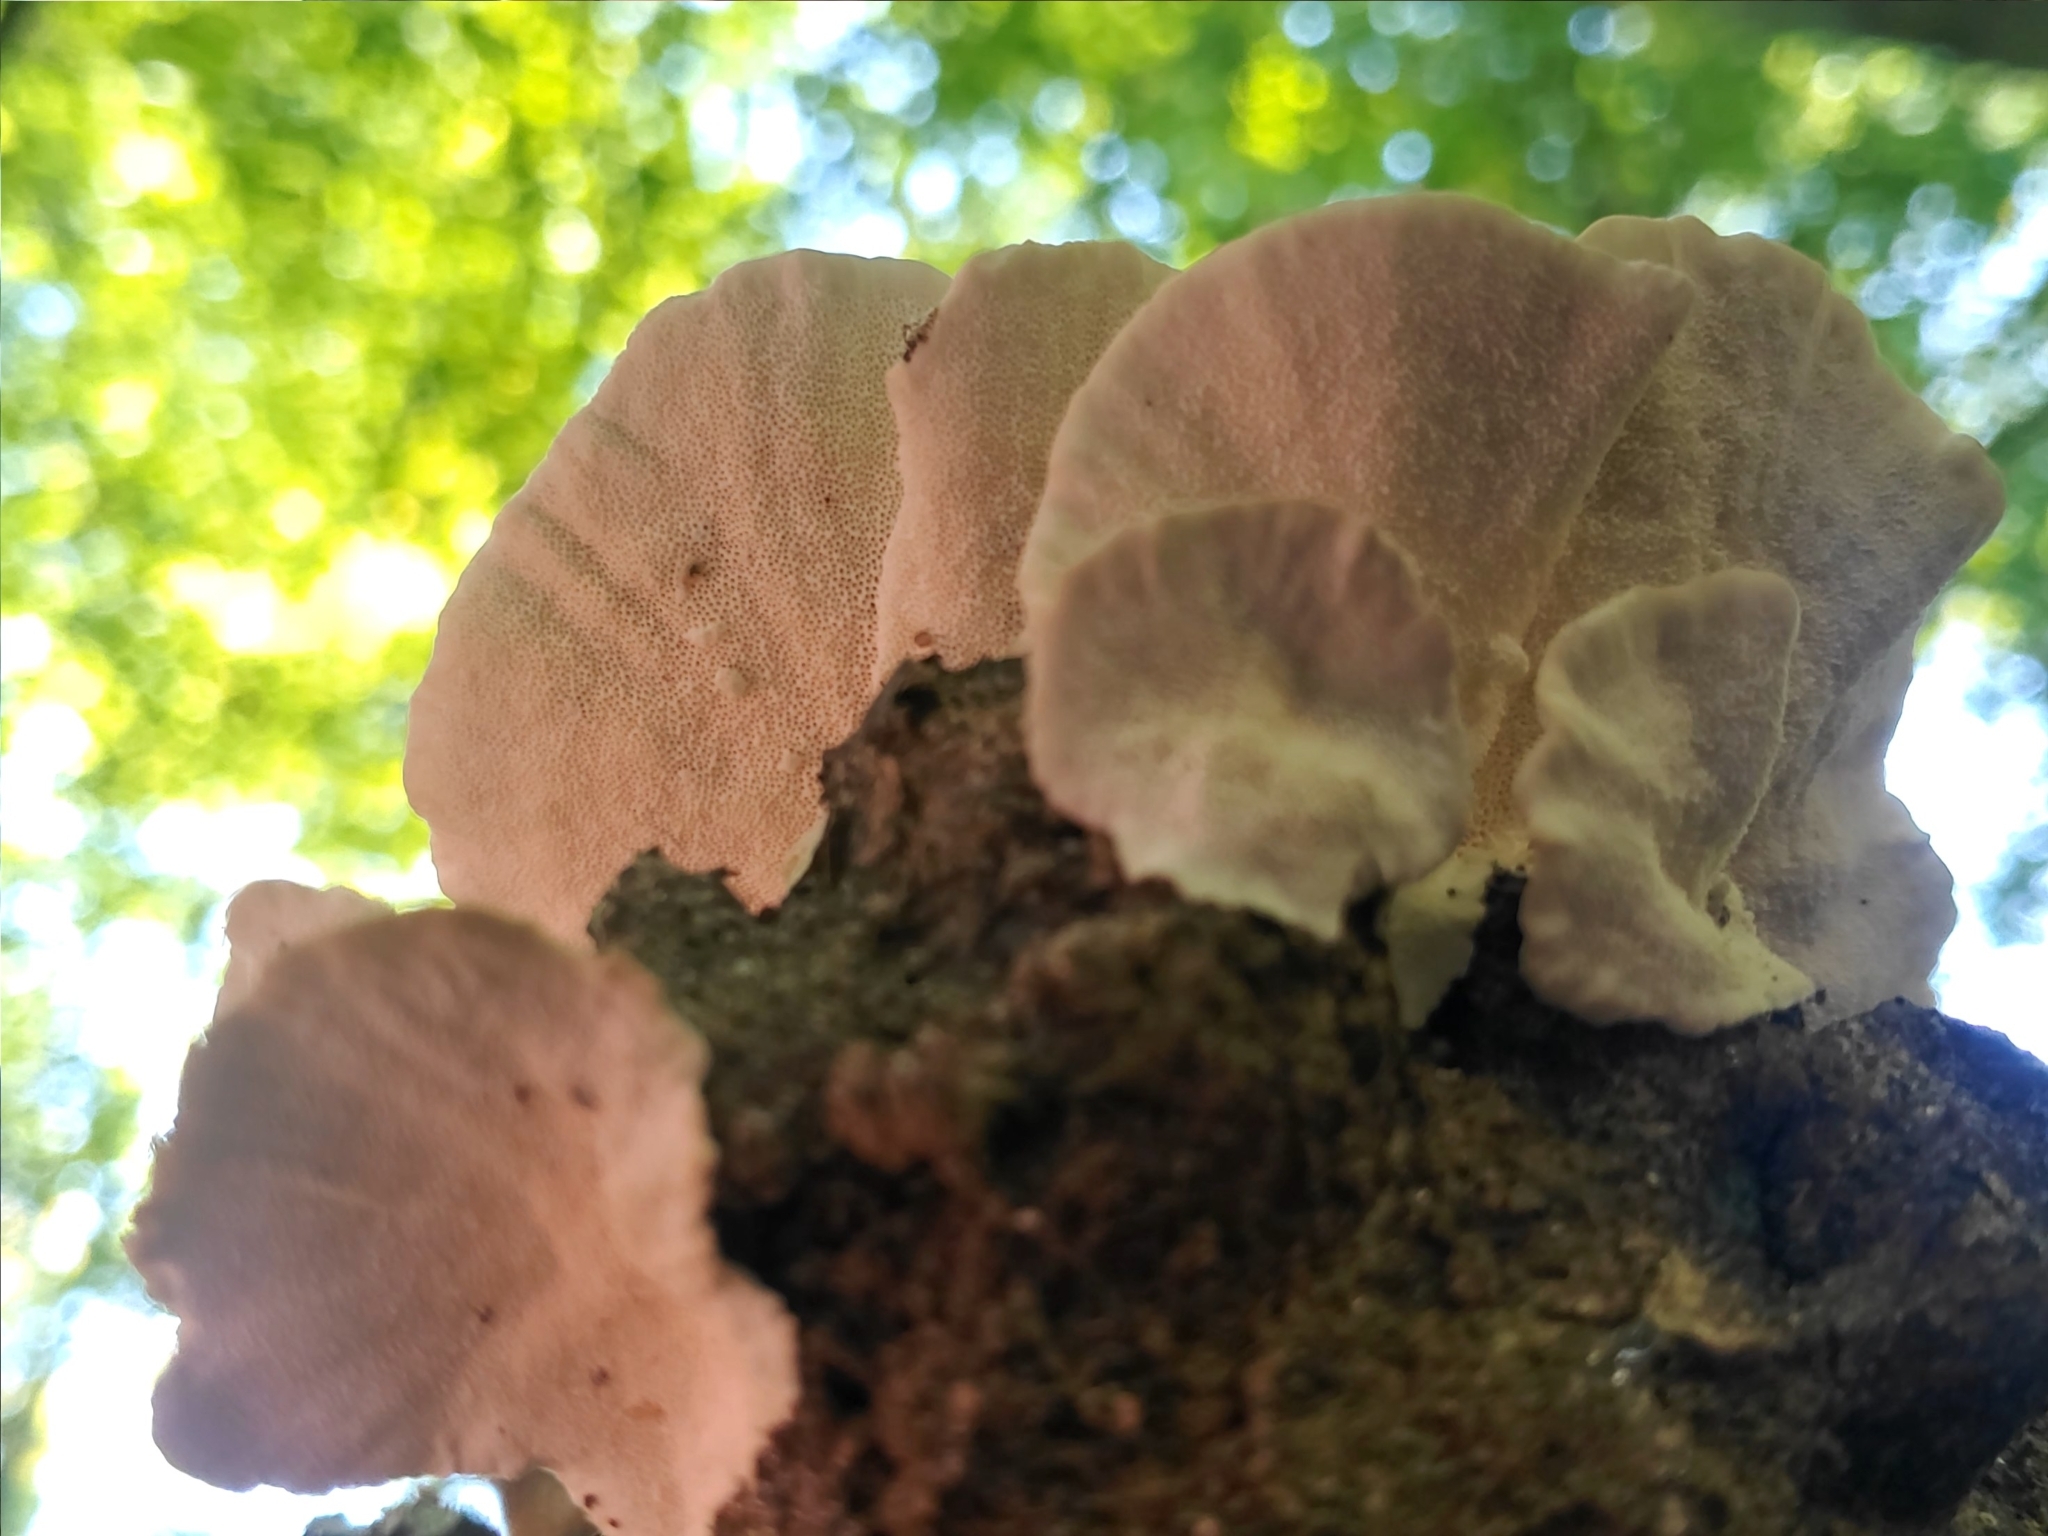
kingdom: Fungi
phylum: Basidiomycota
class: Agaricomycetes
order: Polyporales
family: Polyporaceae
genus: Trametes
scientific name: Trametes versicolor
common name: Turkeytail
